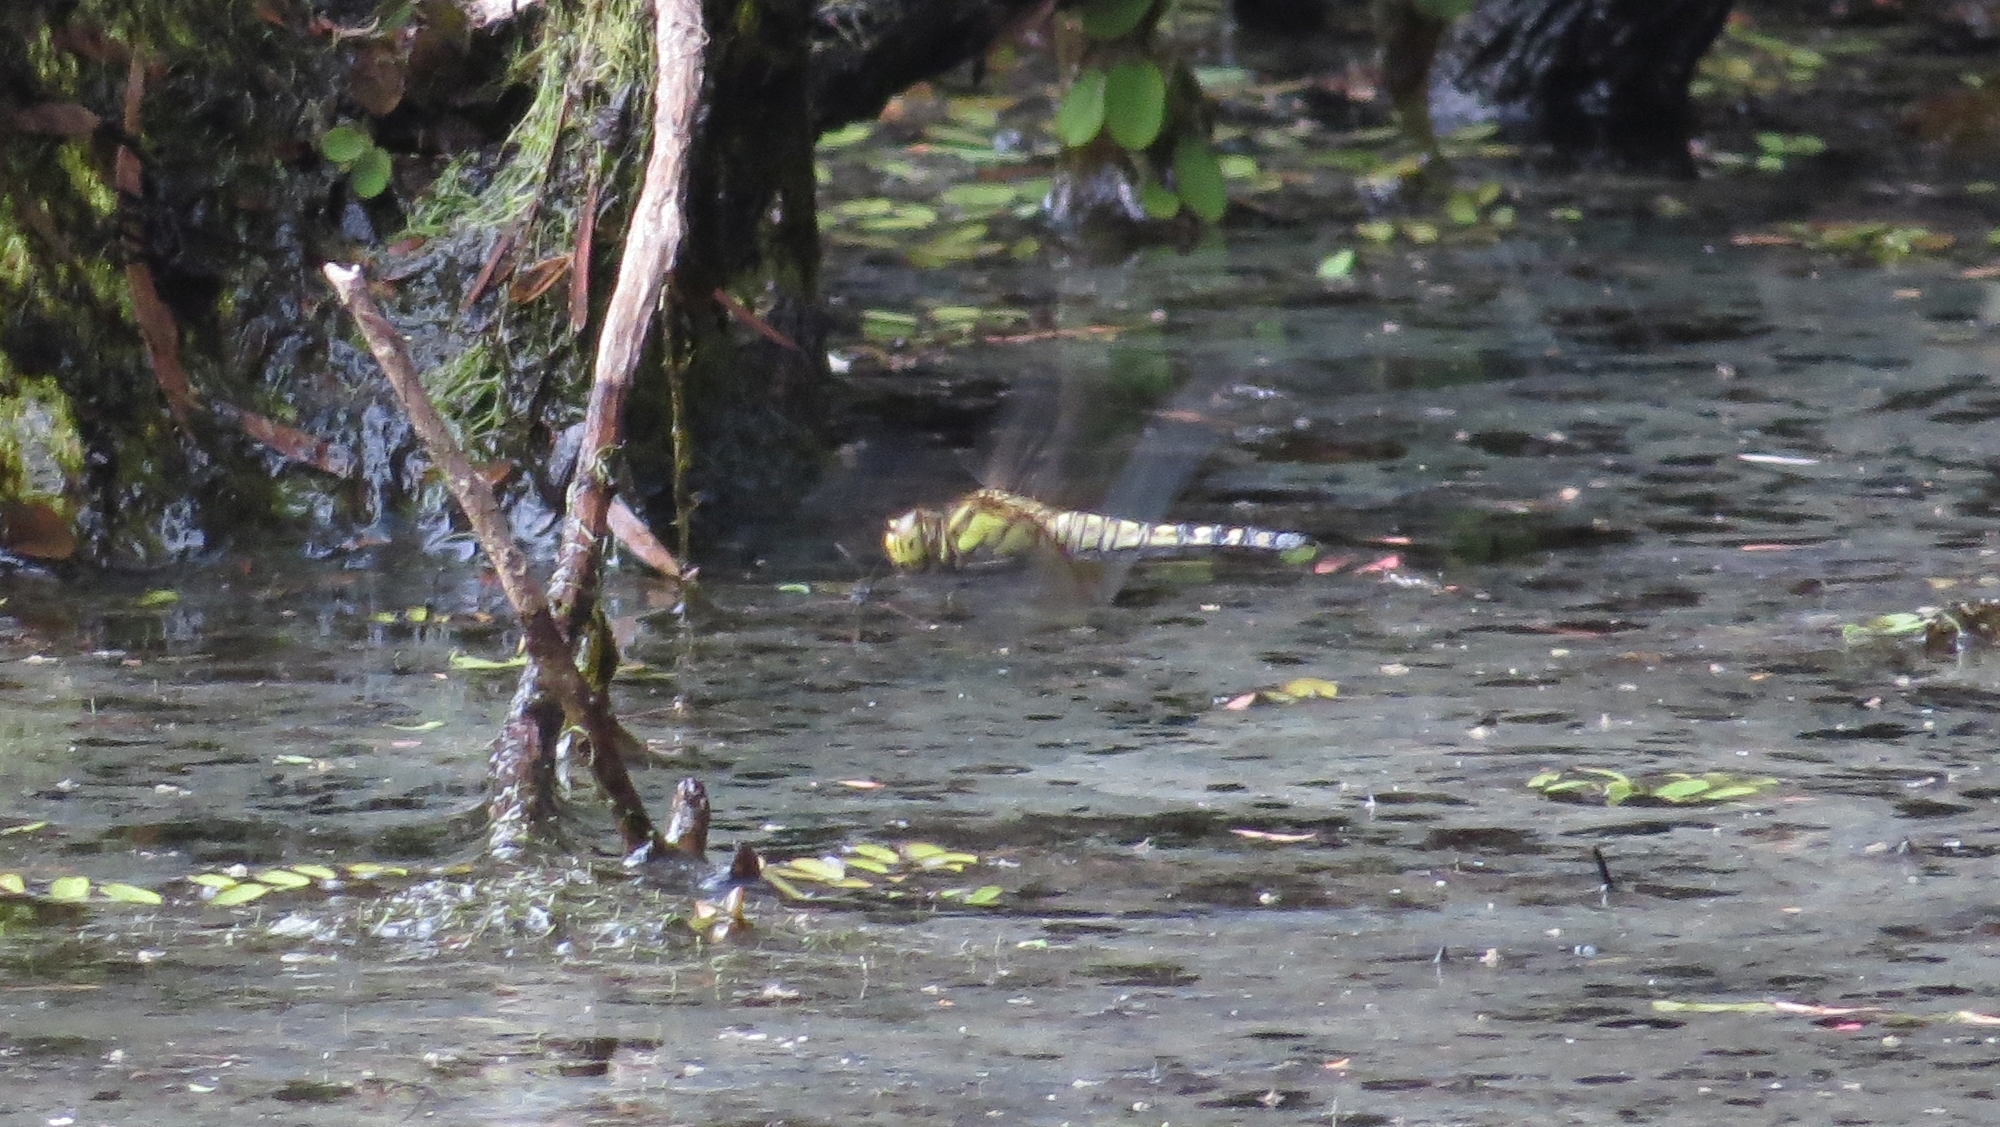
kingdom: Animalia
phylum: Arthropoda
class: Insecta
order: Odonata
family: Libellulidae
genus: Hydrobasileus
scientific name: Hydrobasileus brevistylus
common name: Water prince
